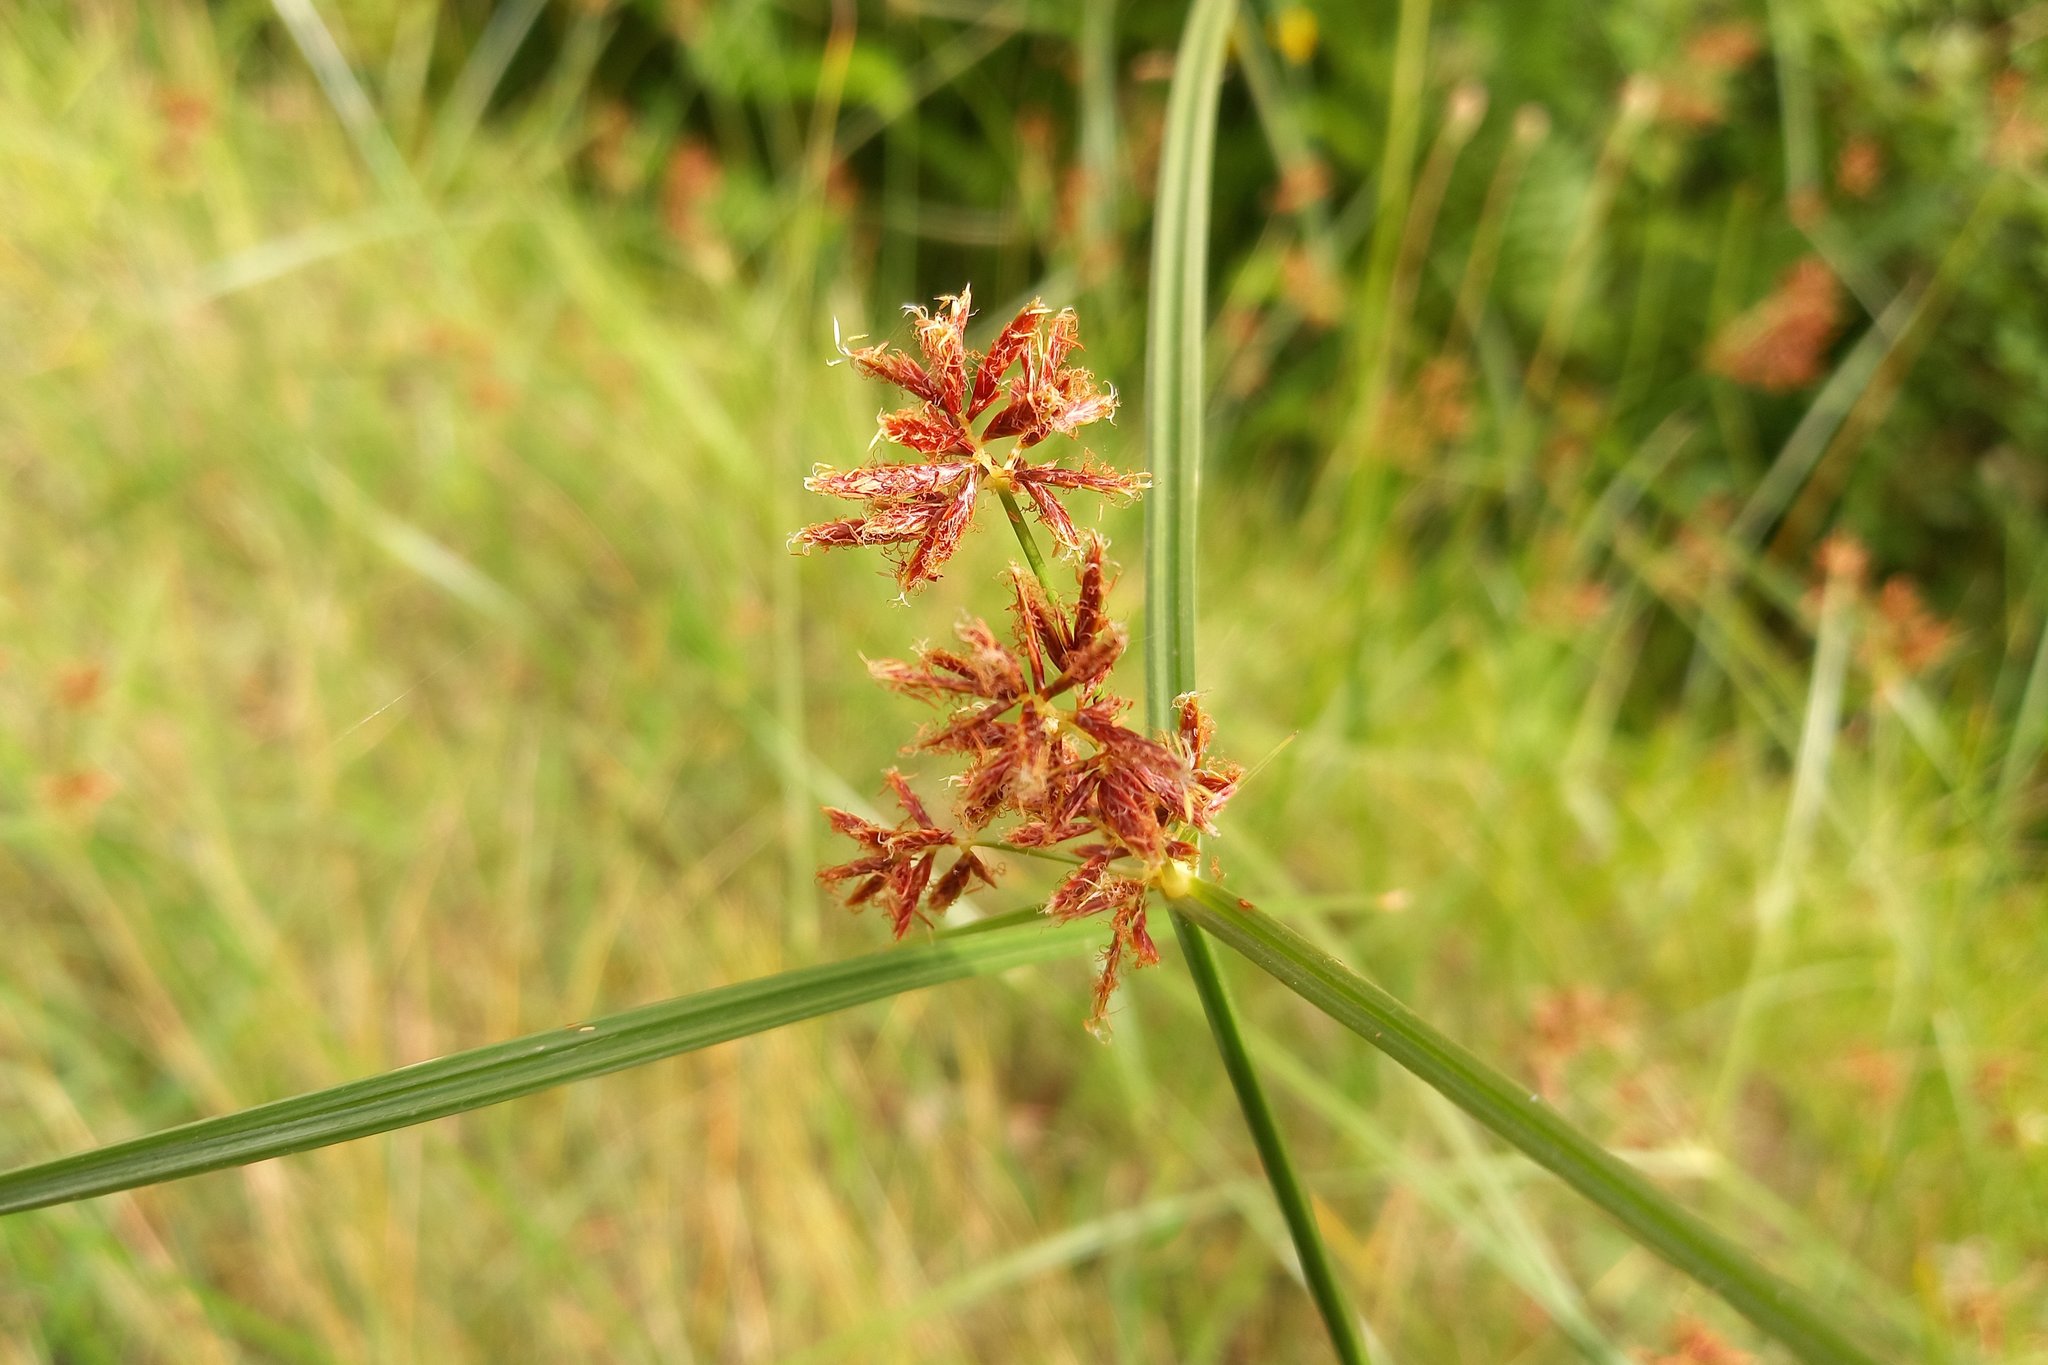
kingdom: Plantae
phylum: Tracheophyta
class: Liliopsida
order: Poales
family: Cyperaceae
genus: Cyperus
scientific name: Cyperus longus
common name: Galingale
